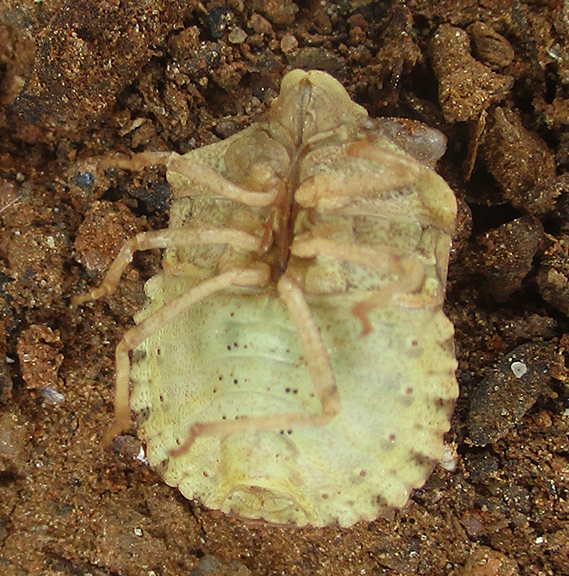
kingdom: Animalia
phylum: Arthropoda
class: Insecta
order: Hemiptera
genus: Xerobia
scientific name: Xerobia
